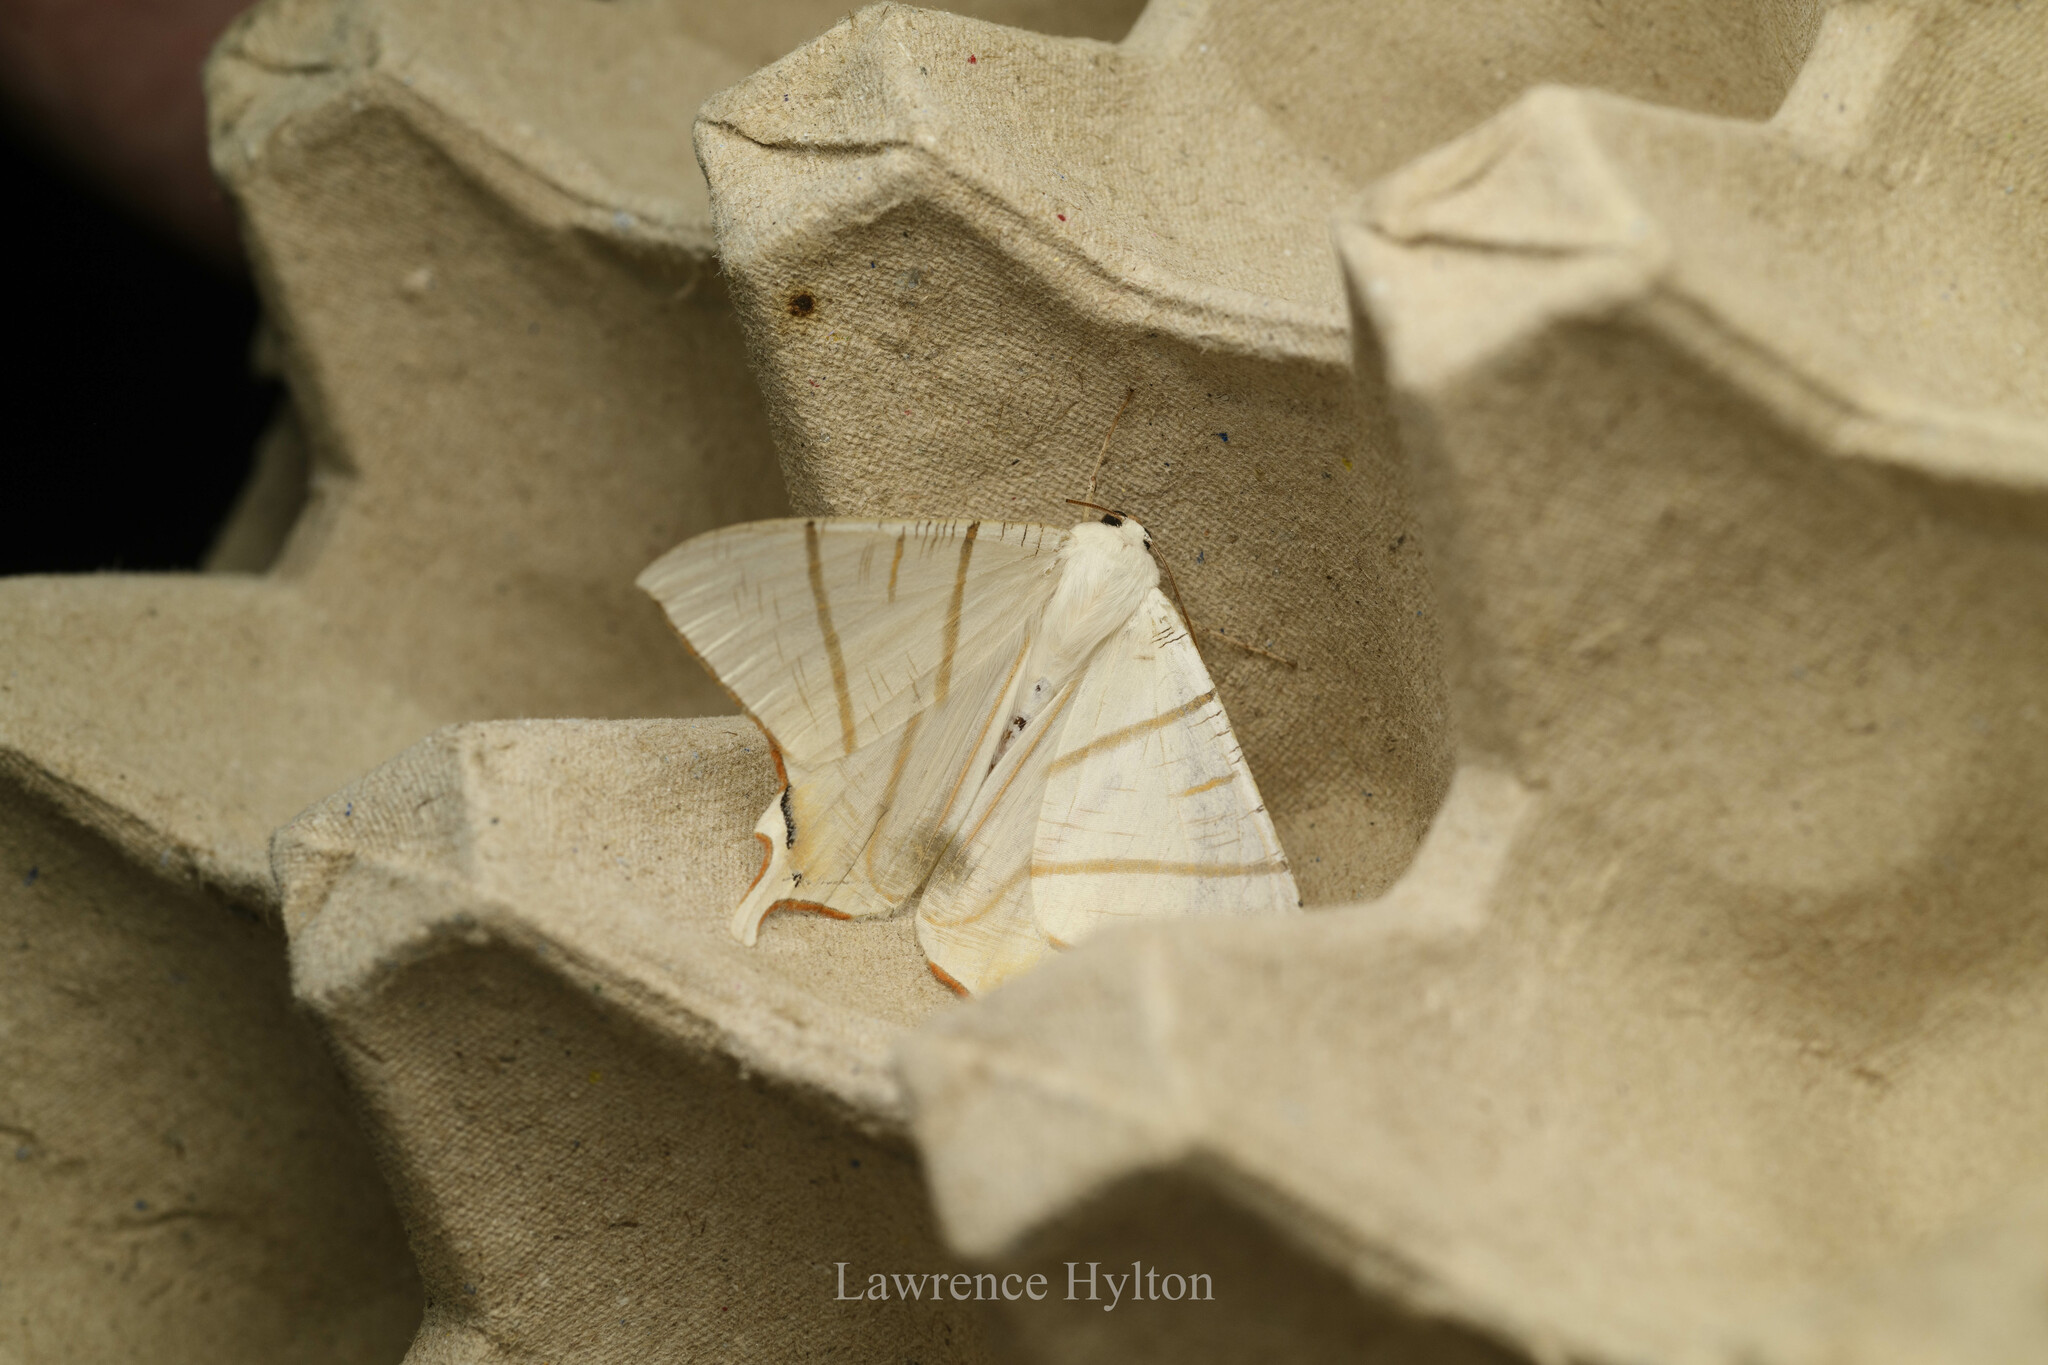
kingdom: Animalia
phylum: Arthropoda
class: Insecta
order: Lepidoptera
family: Geometridae
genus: Ourapteryx
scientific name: Ourapteryx clara
